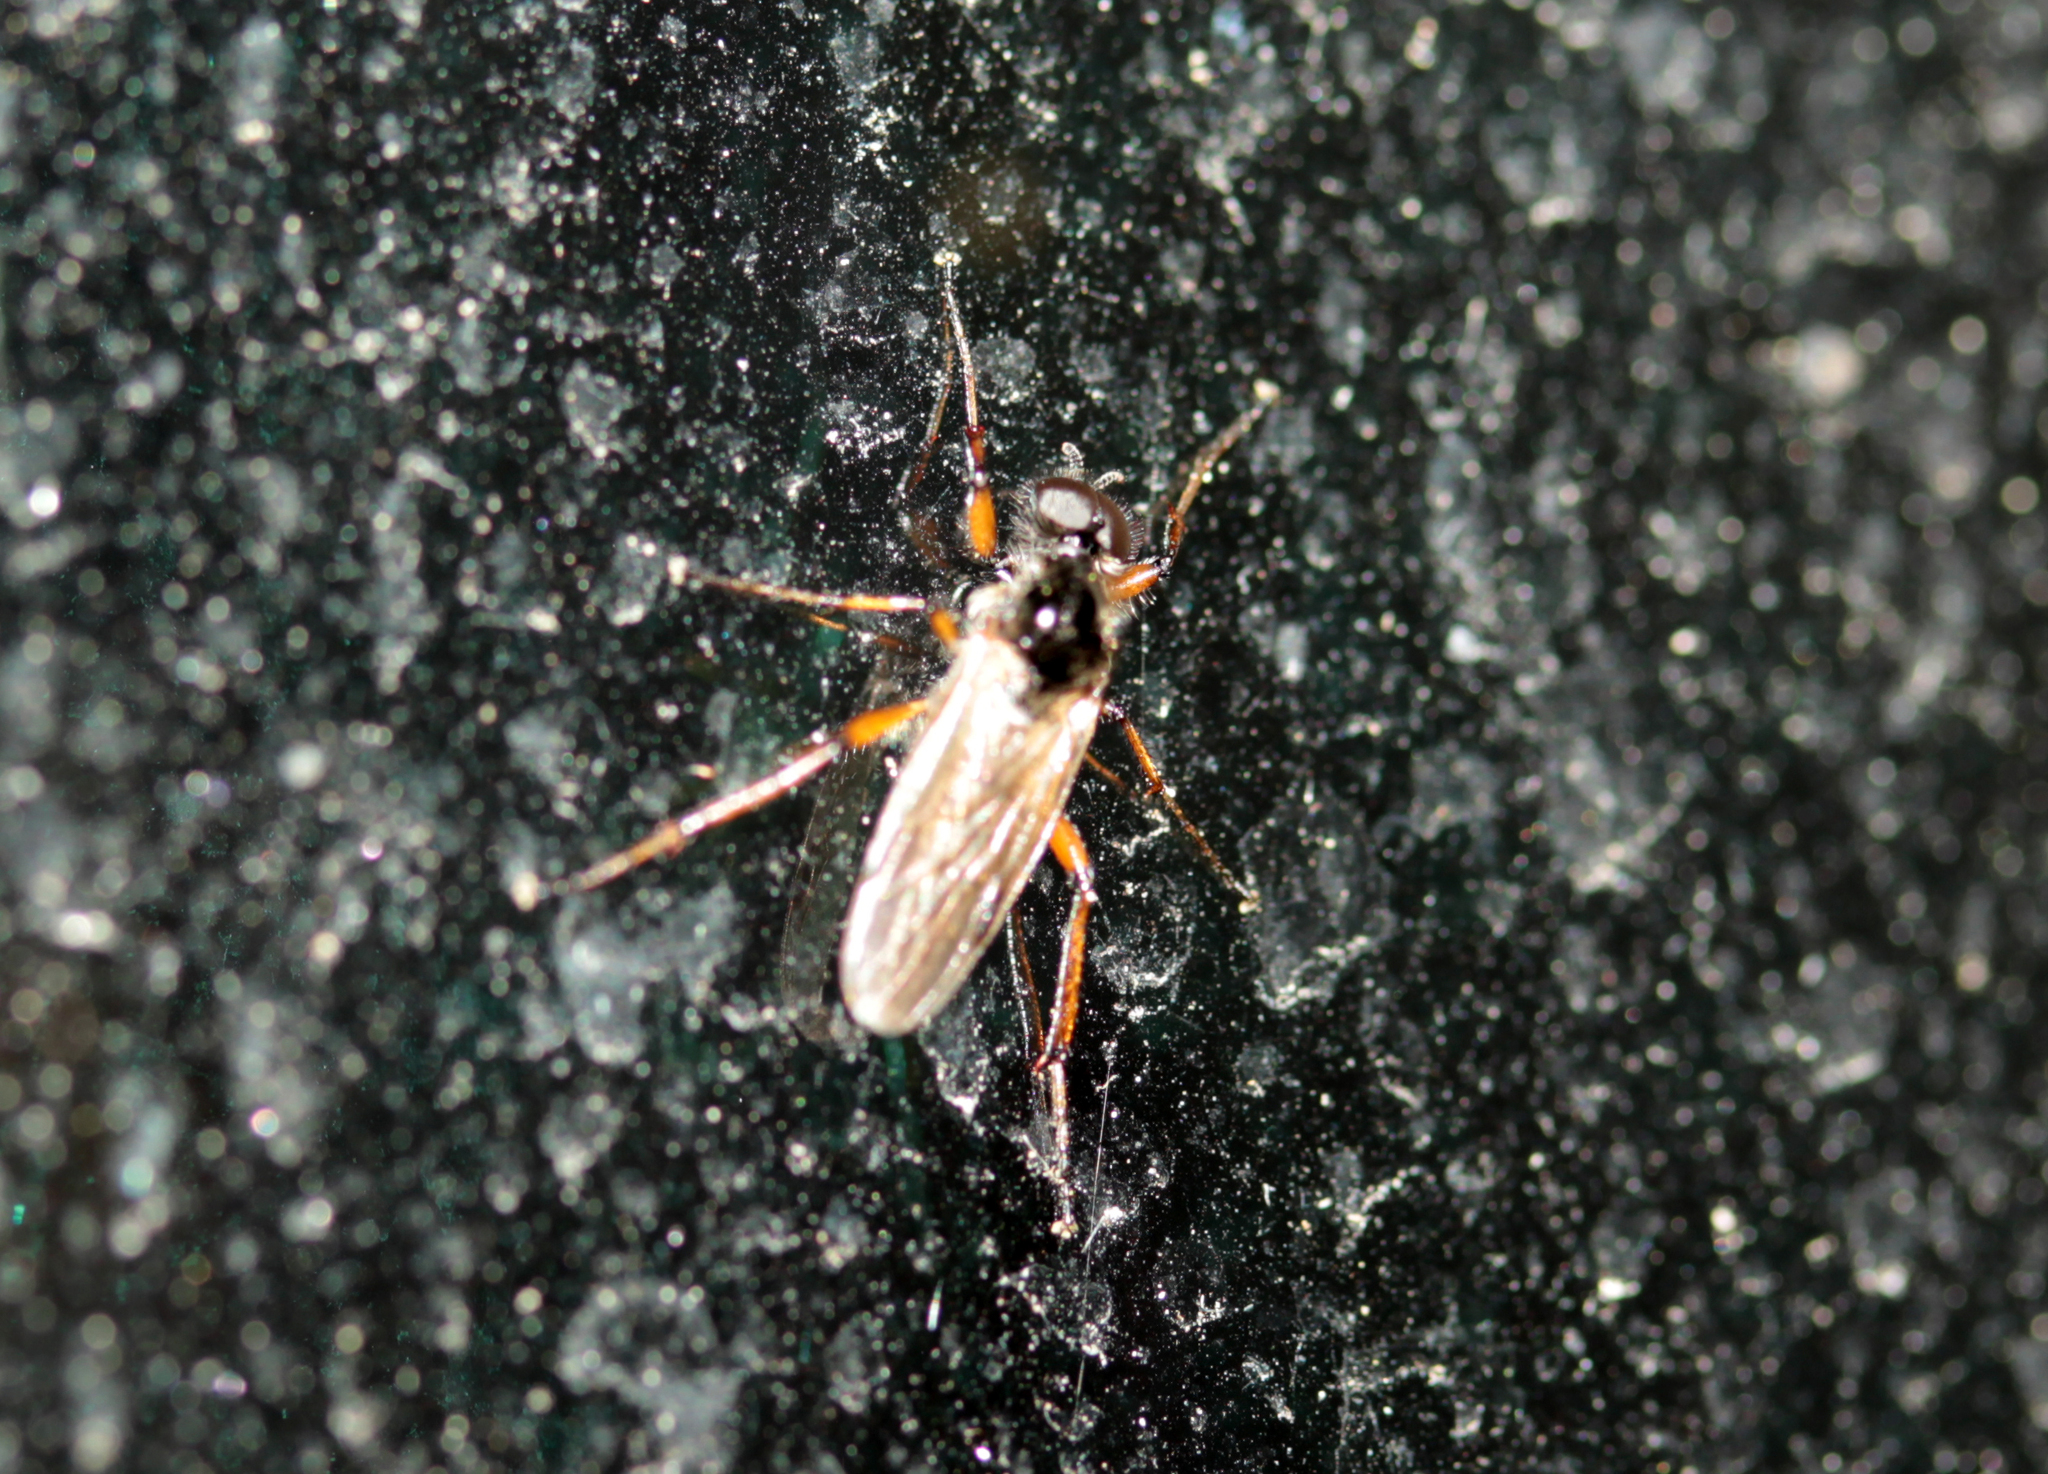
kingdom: Animalia
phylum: Arthropoda
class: Insecta
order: Diptera
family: Bibionidae
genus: Bibio
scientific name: Bibio
